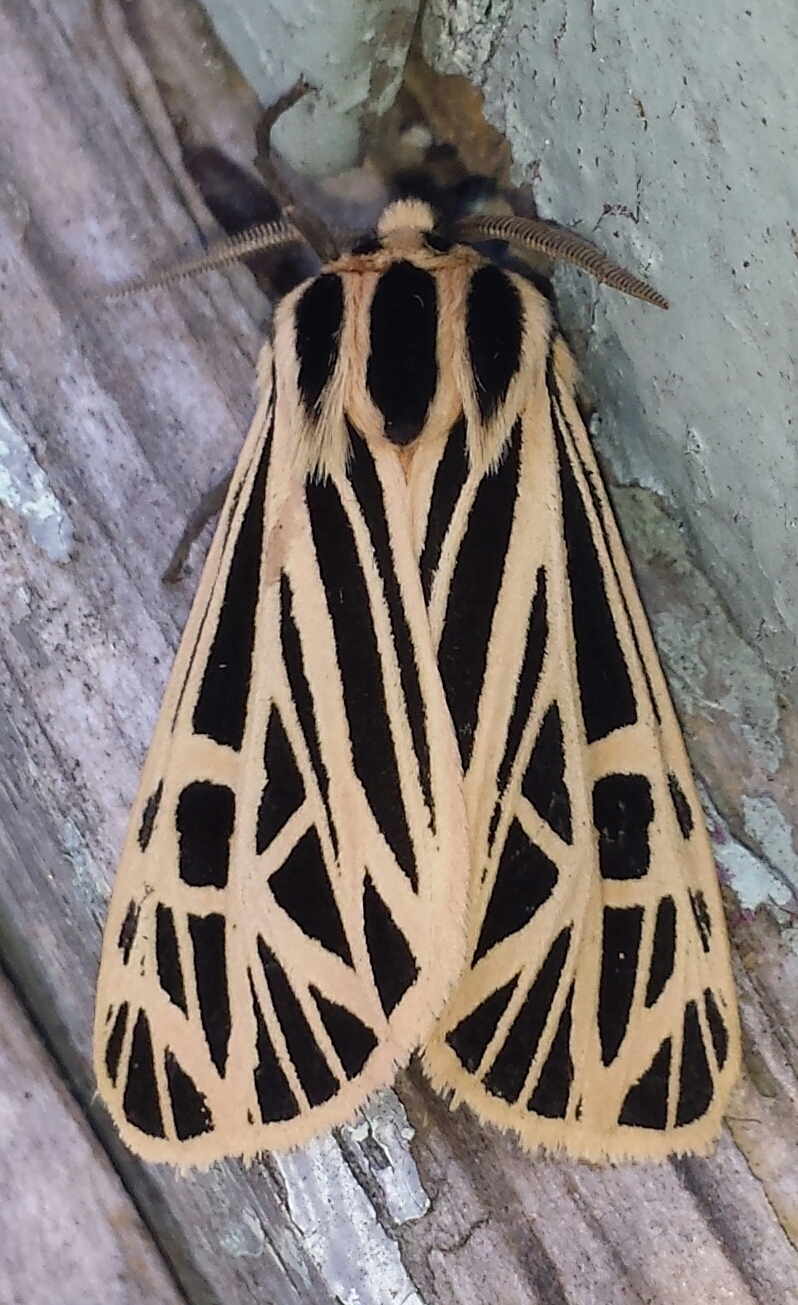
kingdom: Animalia
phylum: Arthropoda
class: Insecta
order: Lepidoptera
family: Erebidae
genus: Grammia
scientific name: Grammia virgo
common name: Virgin tiger moth
